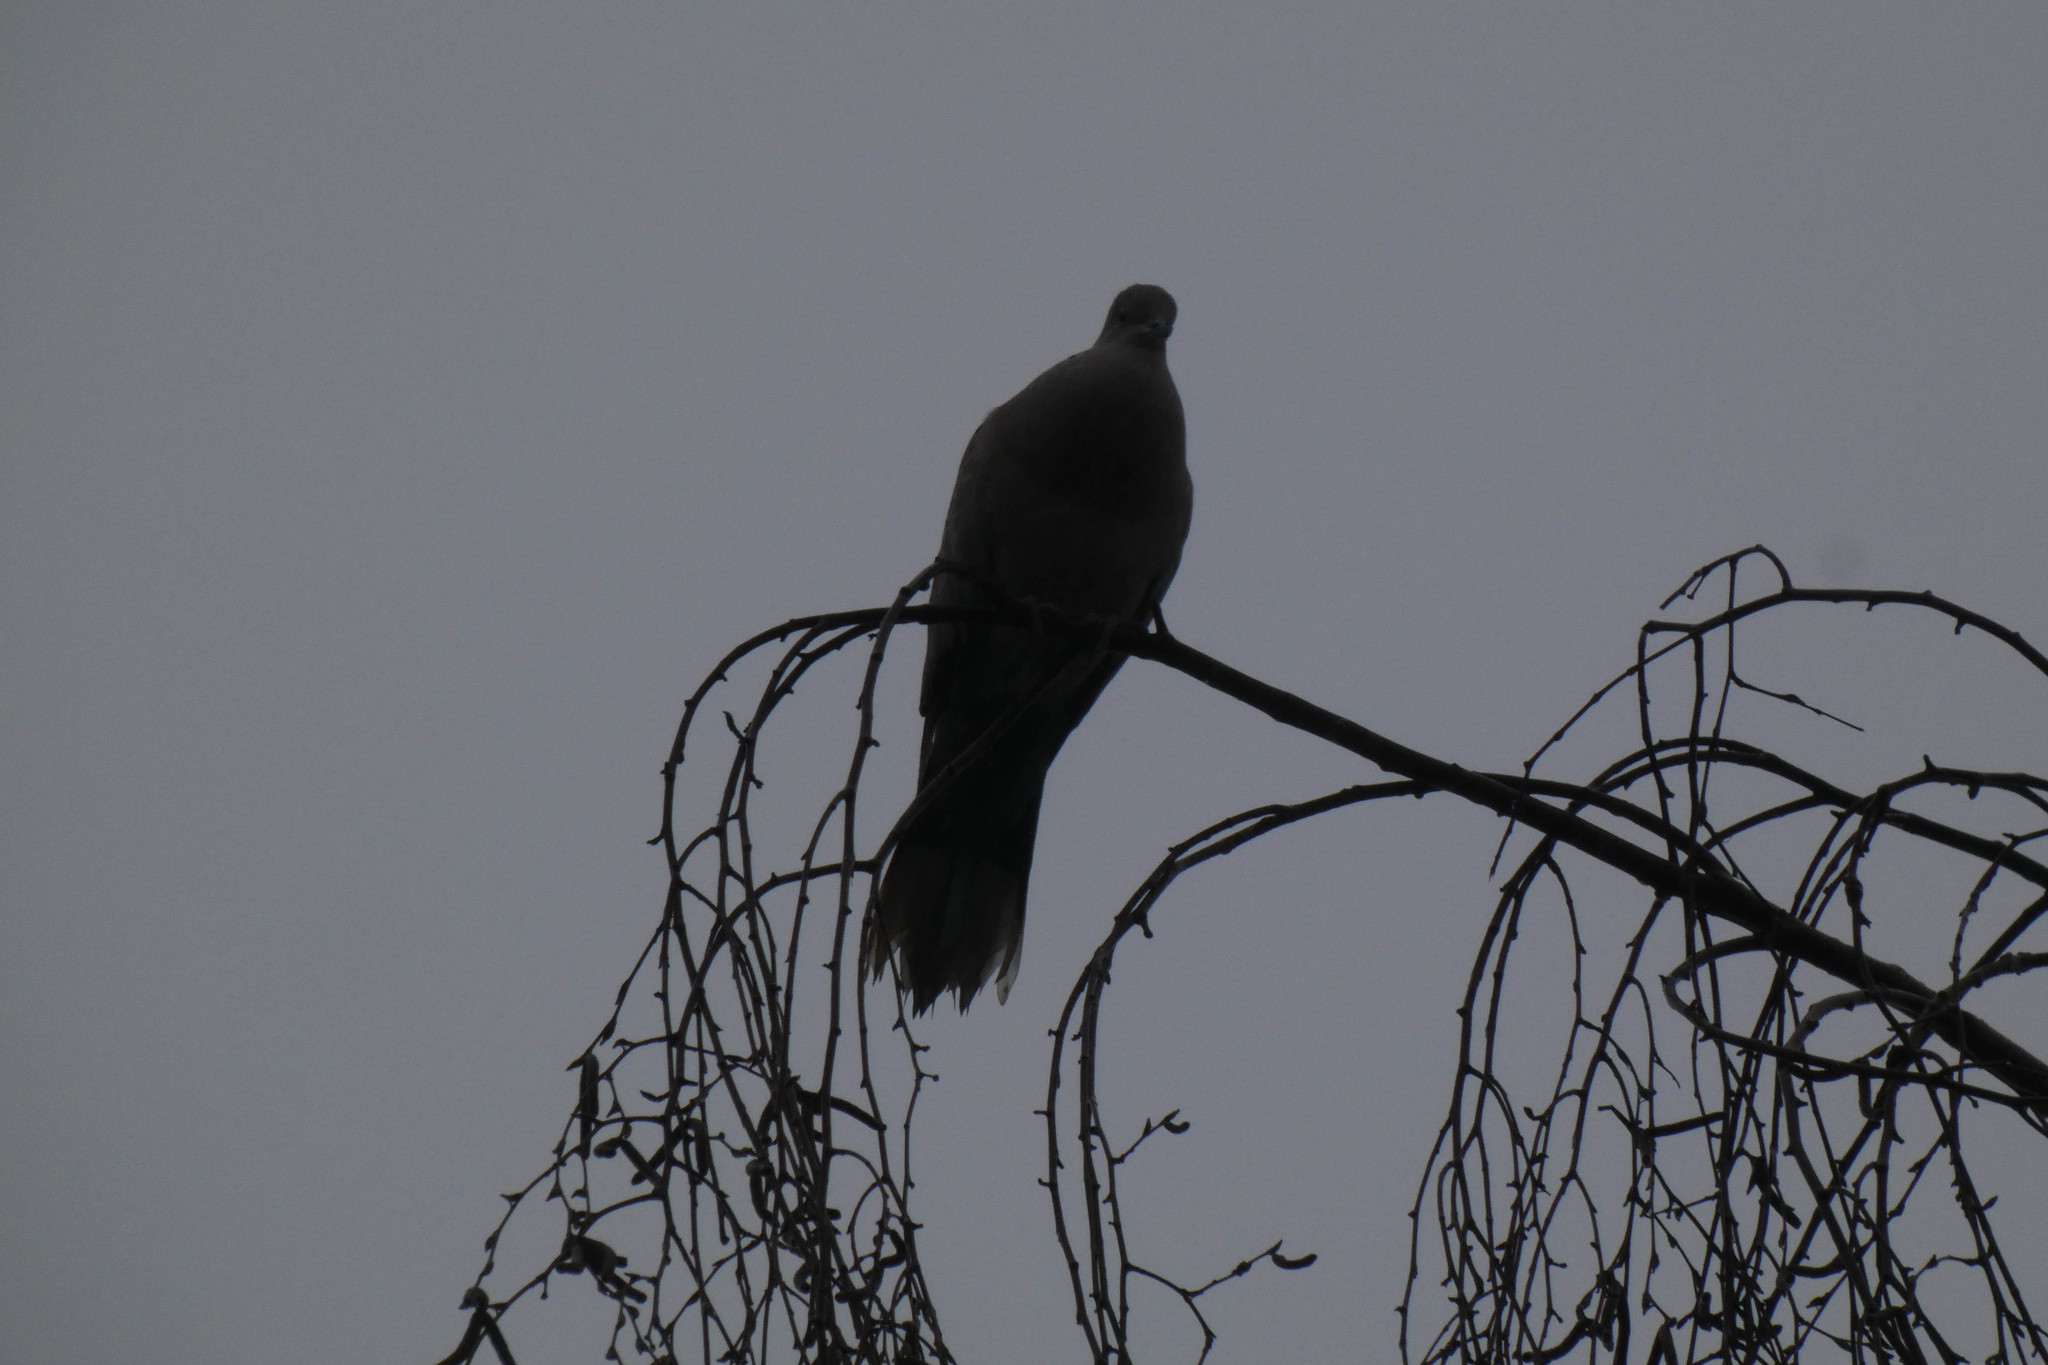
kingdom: Animalia
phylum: Chordata
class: Aves
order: Columbiformes
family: Columbidae
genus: Streptopelia
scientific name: Streptopelia decaocto
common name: Eurasian collared dove
